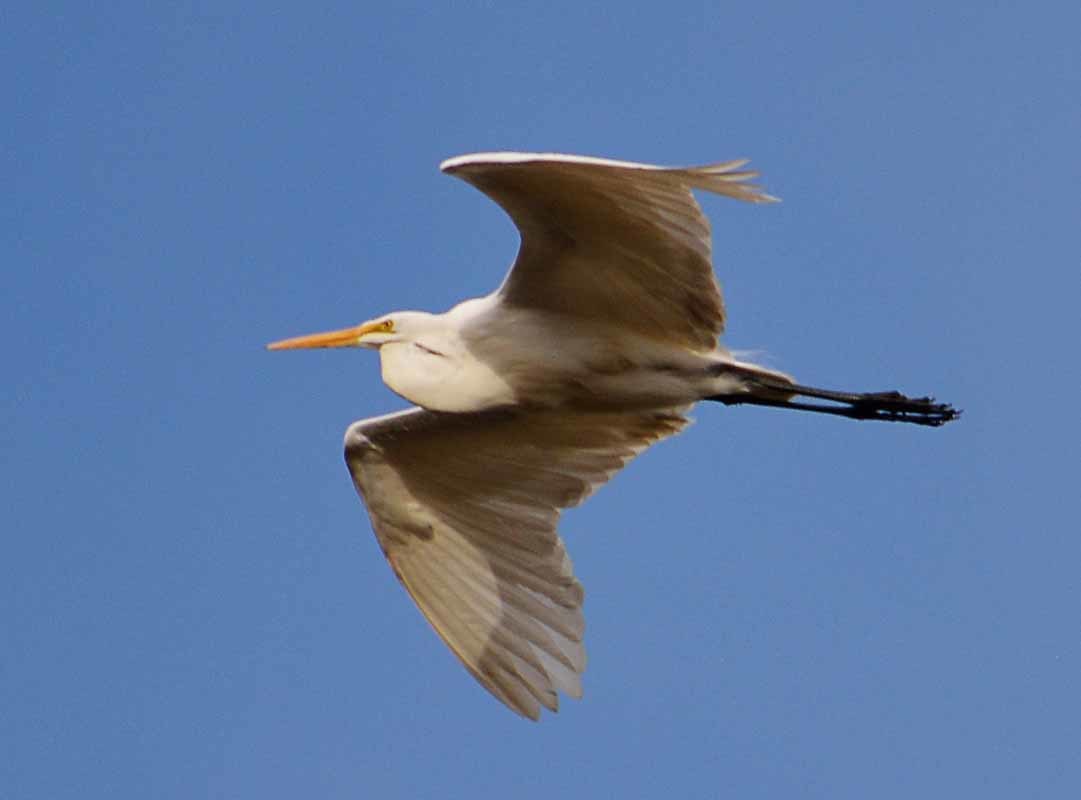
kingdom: Animalia
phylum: Chordata
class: Aves
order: Pelecaniformes
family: Ardeidae
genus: Ardea
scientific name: Ardea alba
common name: Great egret
